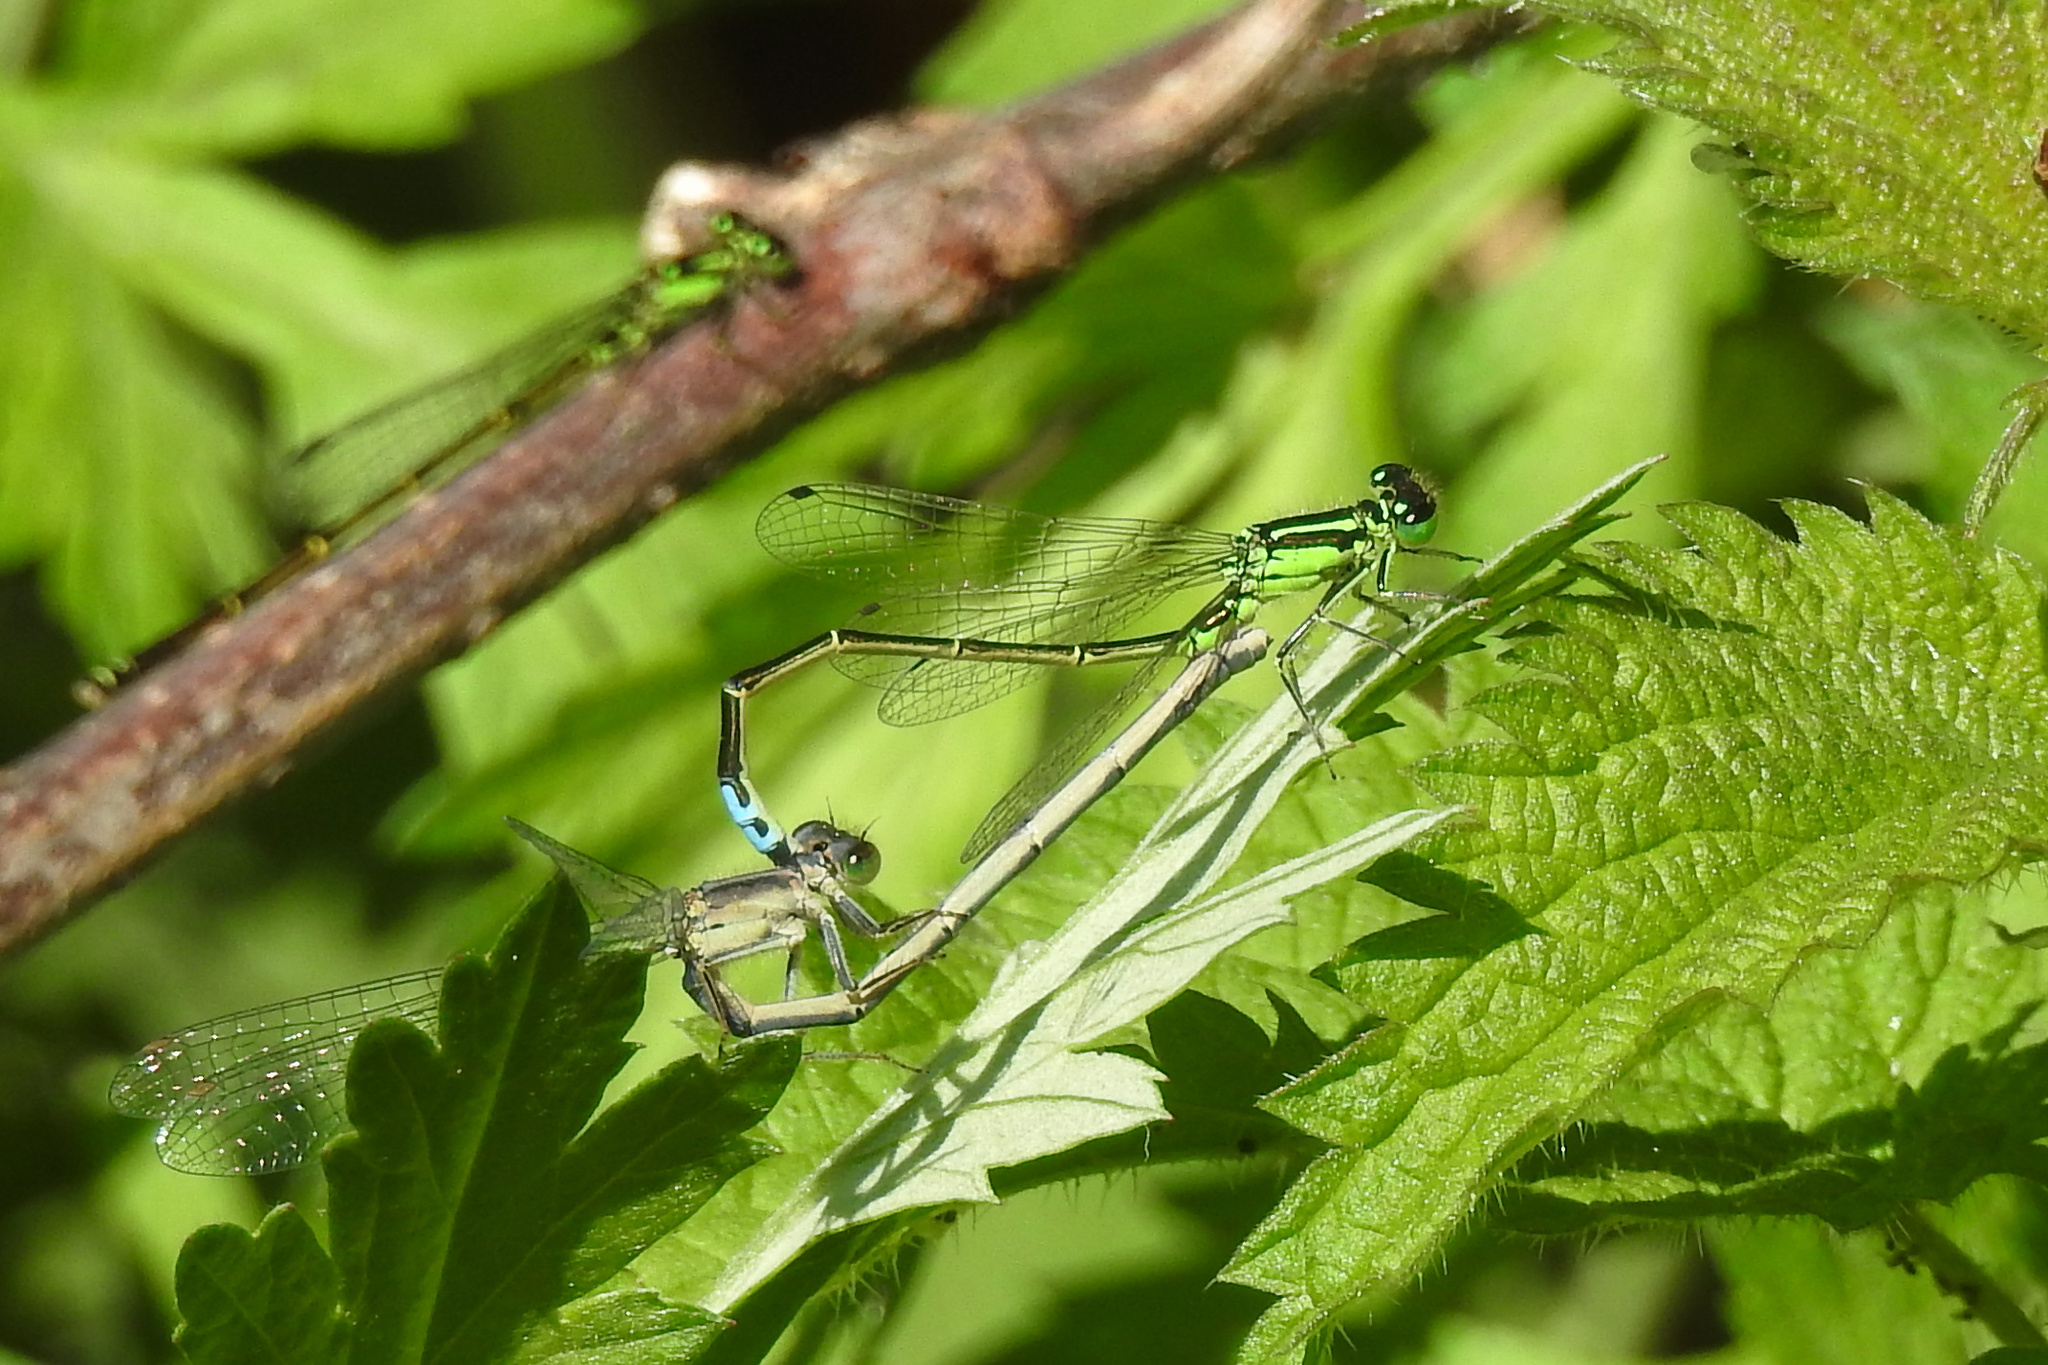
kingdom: Animalia
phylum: Arthropoda
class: Insecta
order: Odonata
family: Coenagrionidae
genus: Ischnura
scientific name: Ischnura verticalis
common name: Eastern forktail
